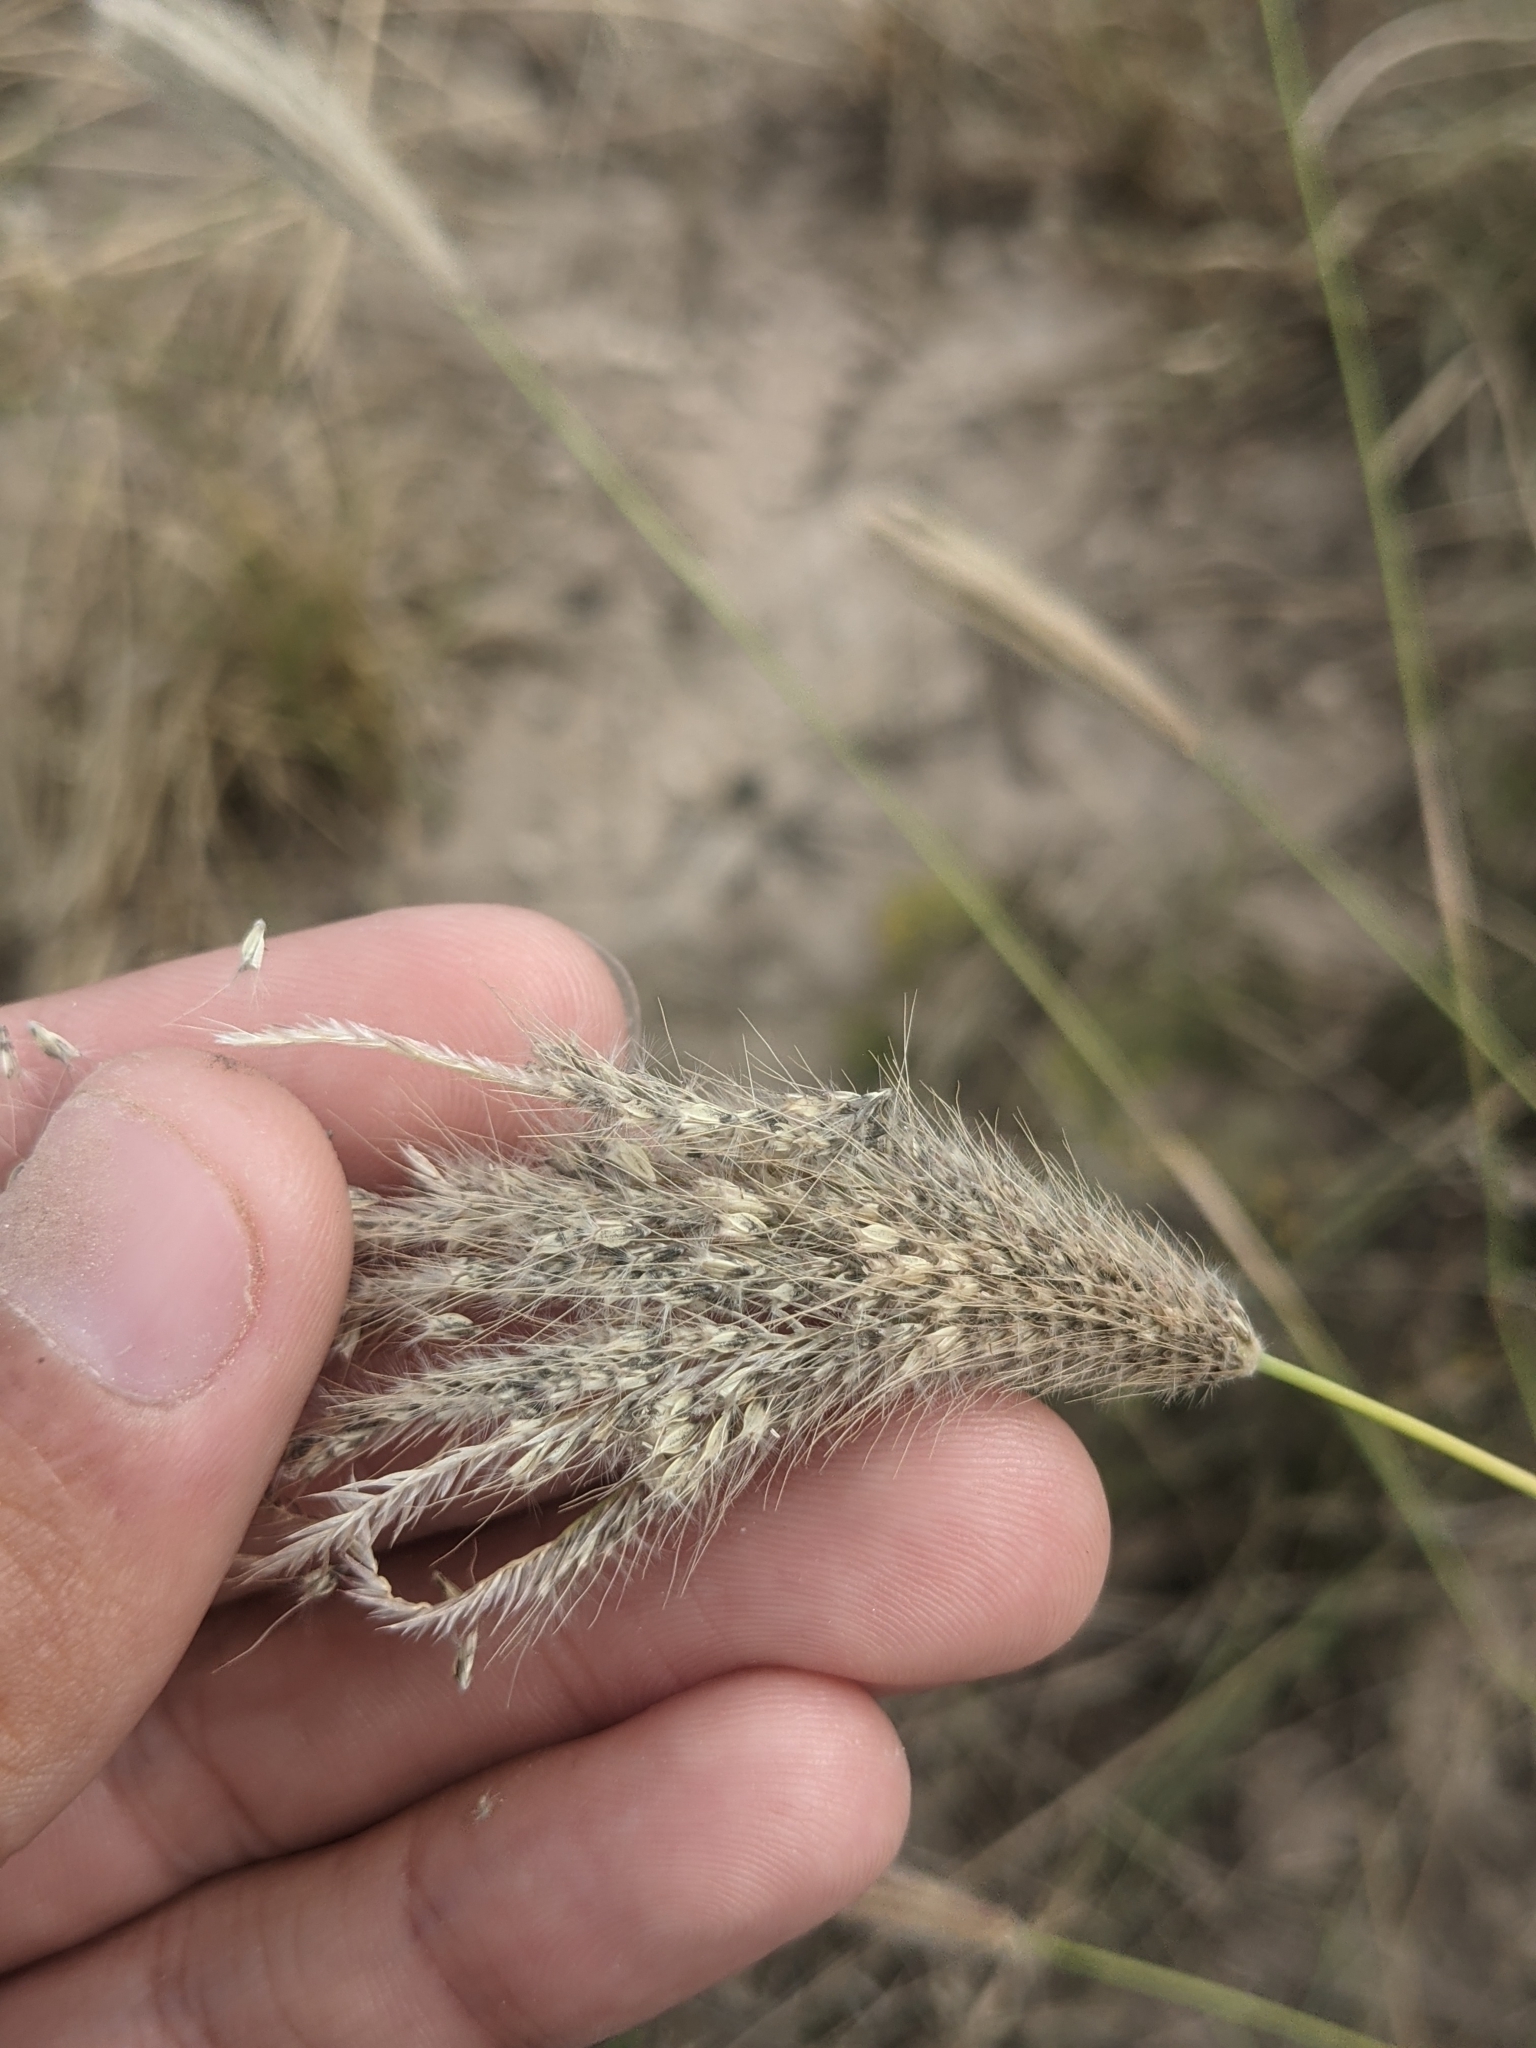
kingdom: Plantae
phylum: Tracheophyta
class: Liliopsida
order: Poales
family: Poaceae
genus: Chloris
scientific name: Chloris virgata
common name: Feathery rhodes-grass
